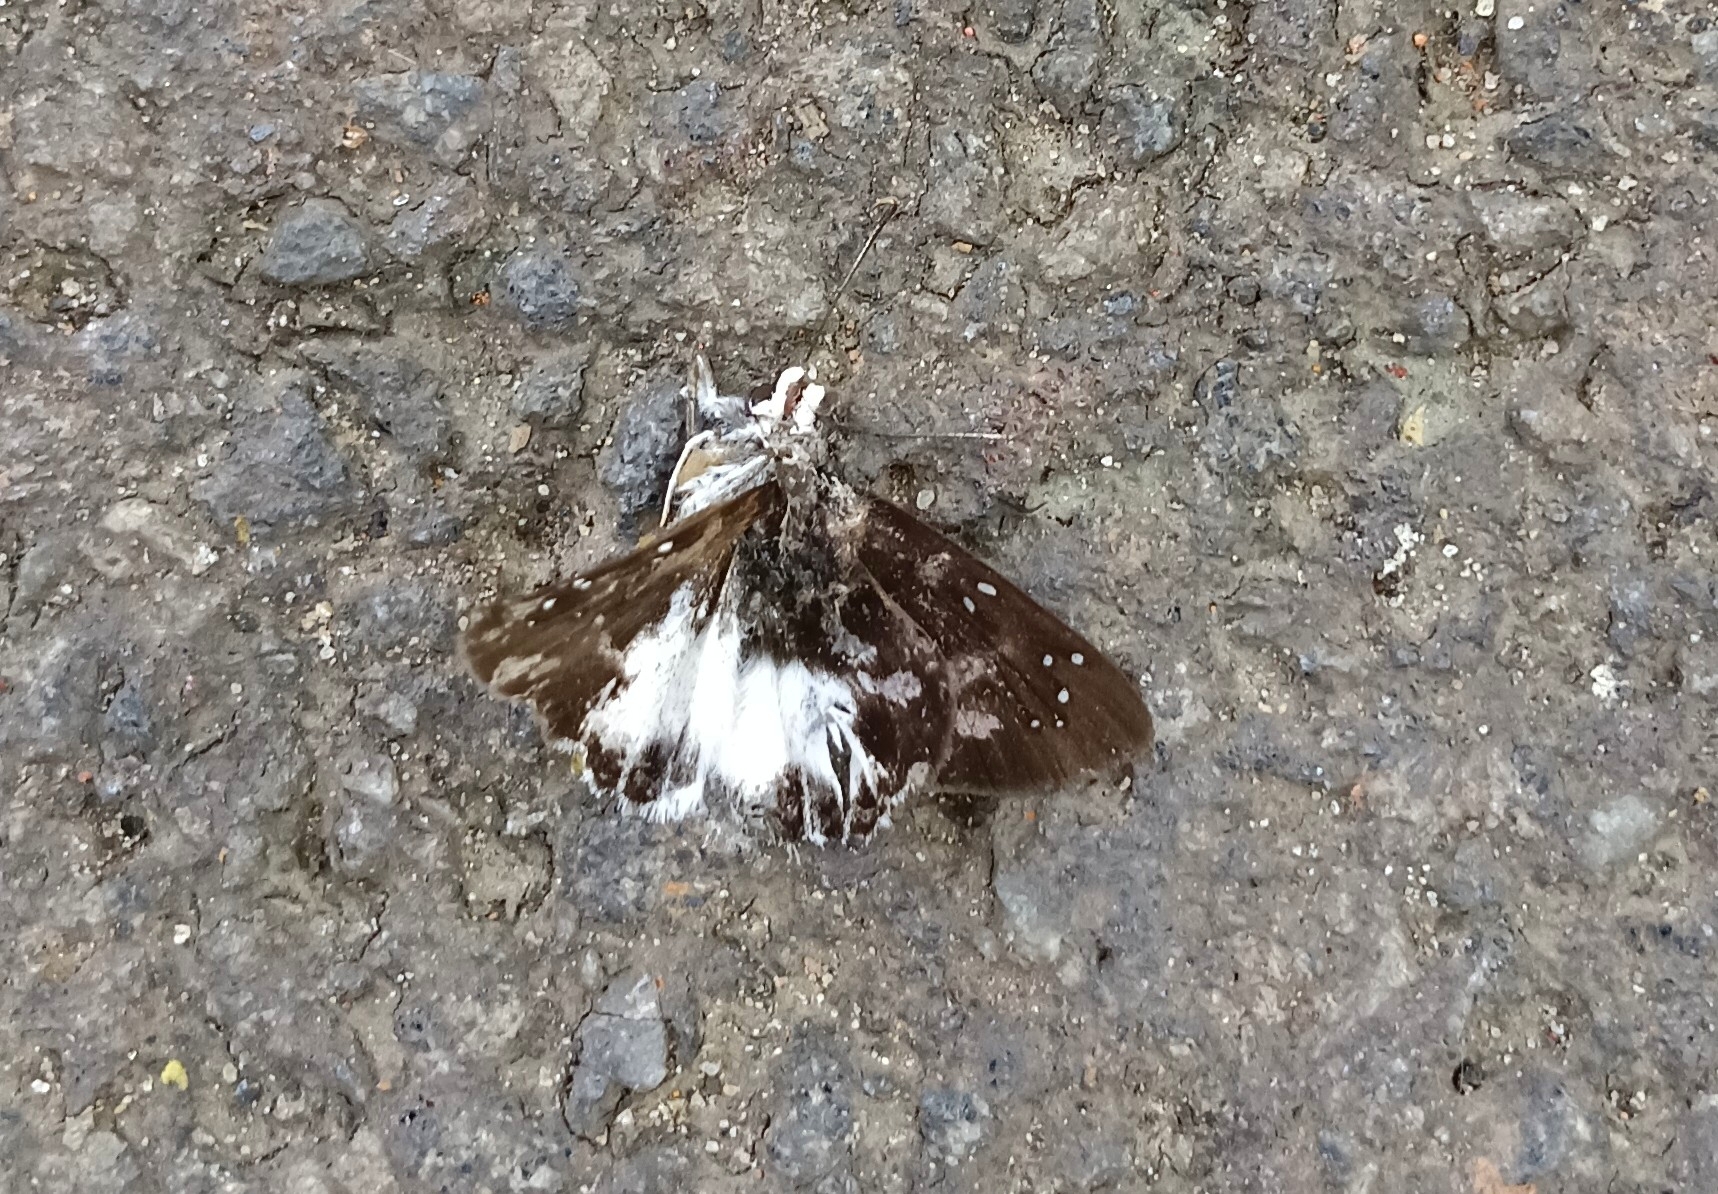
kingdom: Animalia
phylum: Arthropoda
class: Insecta
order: Lepidoptera
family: Hesperiidae
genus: Tagiades
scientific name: Tagiades litigiosa
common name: Water snow flat
